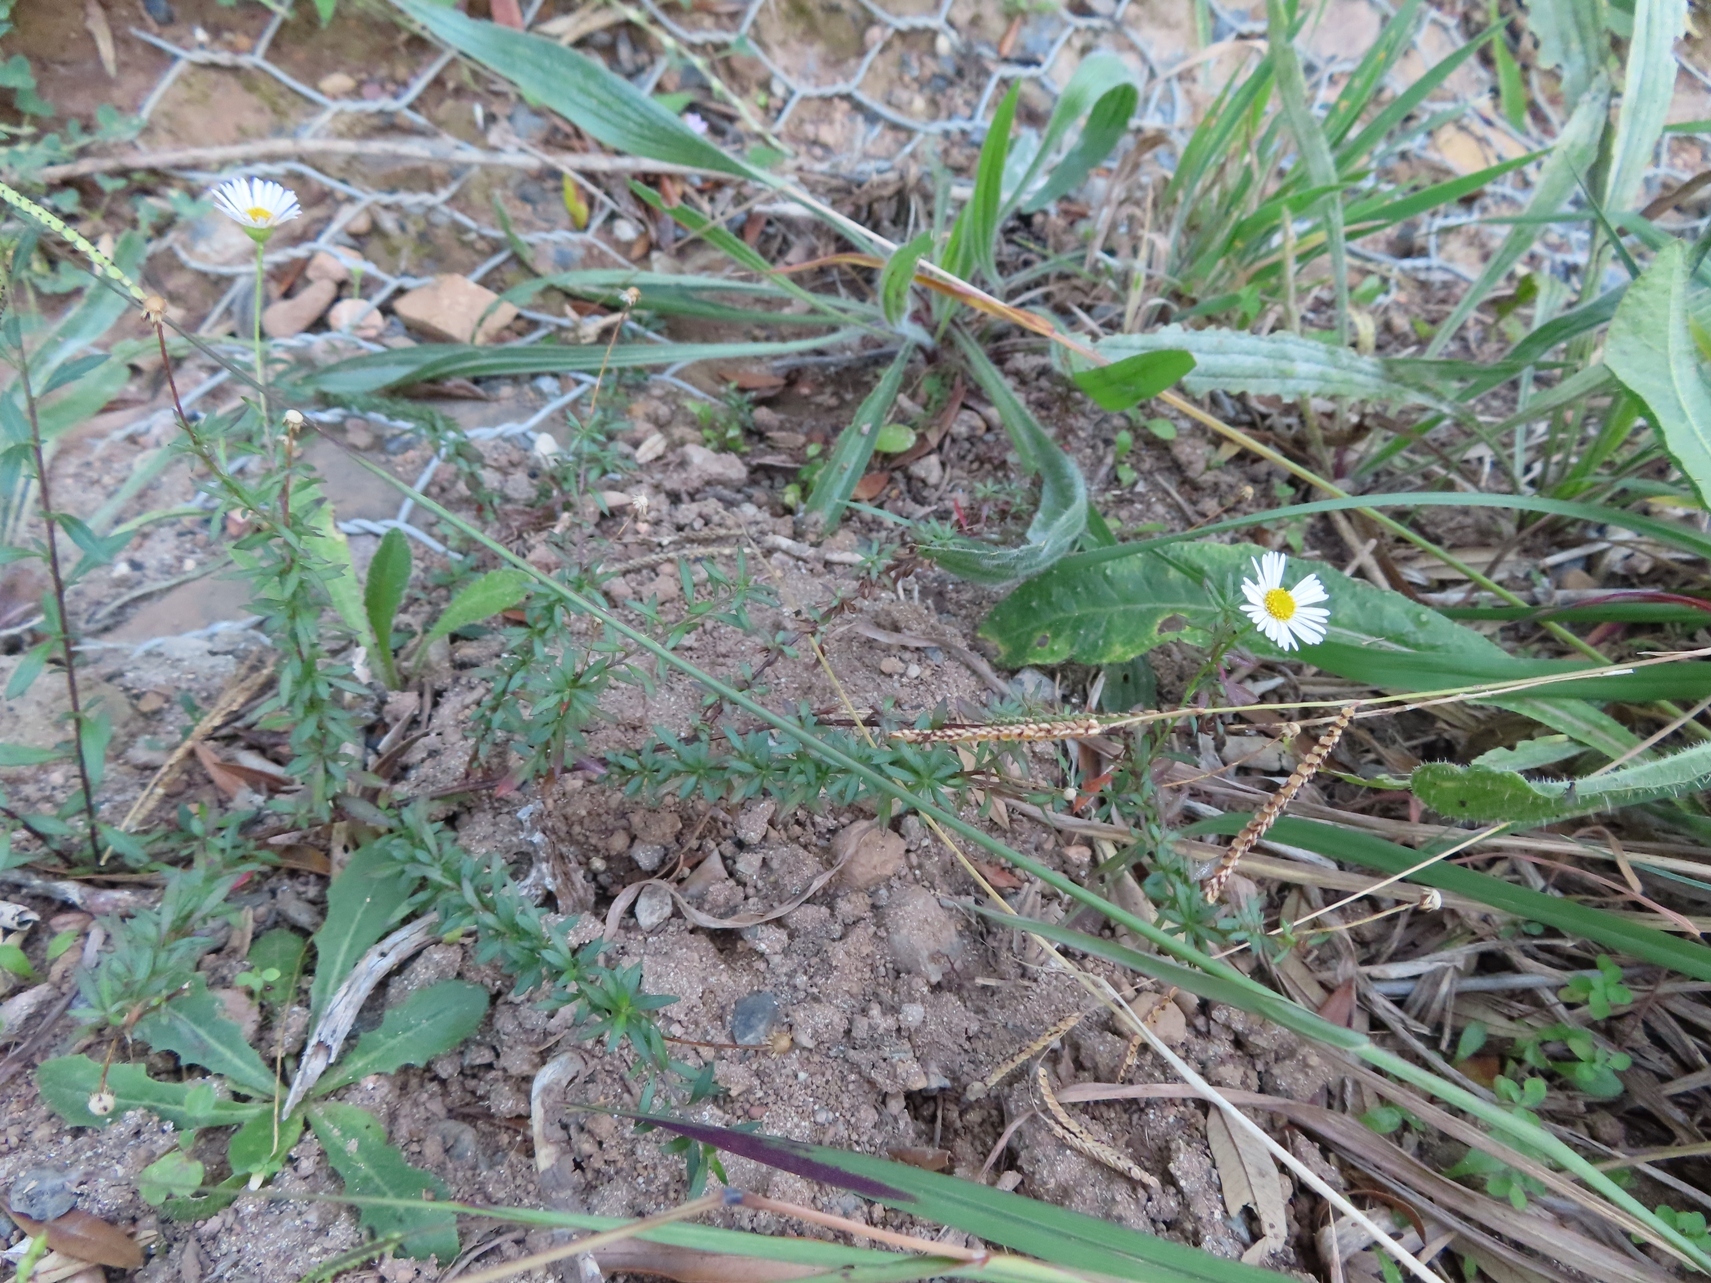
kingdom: Plantae
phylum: Tracheophyta
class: Magnoliopsida
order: Asterales
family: Asteraceae
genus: Erigeron
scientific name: Erigeron karvinskianus
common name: Mexican fleabane
